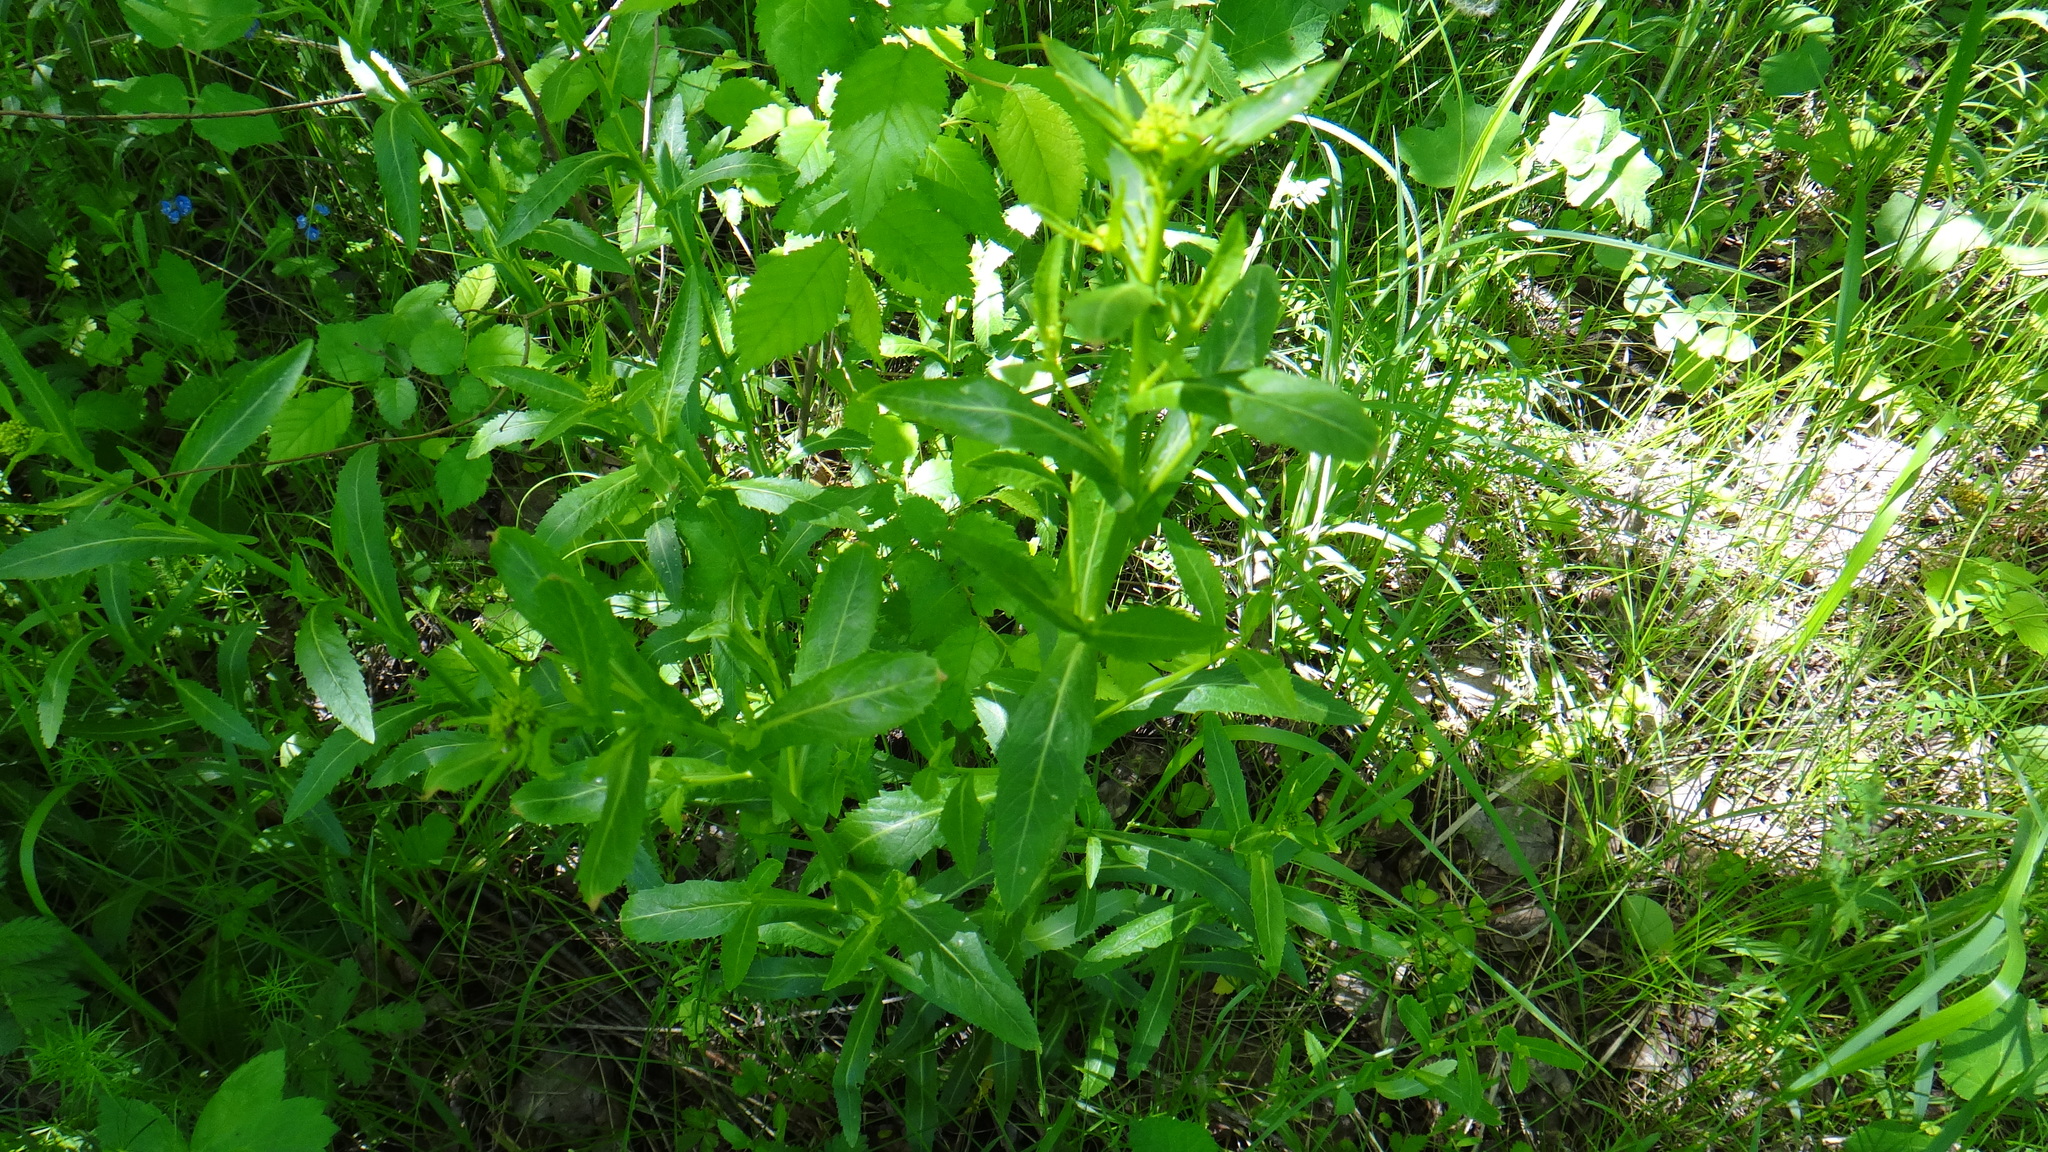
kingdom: Plantae
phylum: Tracheophyta
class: Magnoliopsida
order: Brassicales
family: Brassicaceae
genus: Rorippa
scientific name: Rorippa austriaca
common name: Austrian yellow-cress
